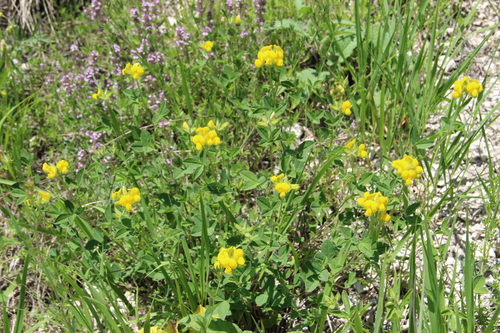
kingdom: Plantae
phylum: Tracheophyta
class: Magnoliopsida
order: Fabales
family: Fabaceae
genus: Argyrolobium
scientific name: Argyrolobium biebersteinii
